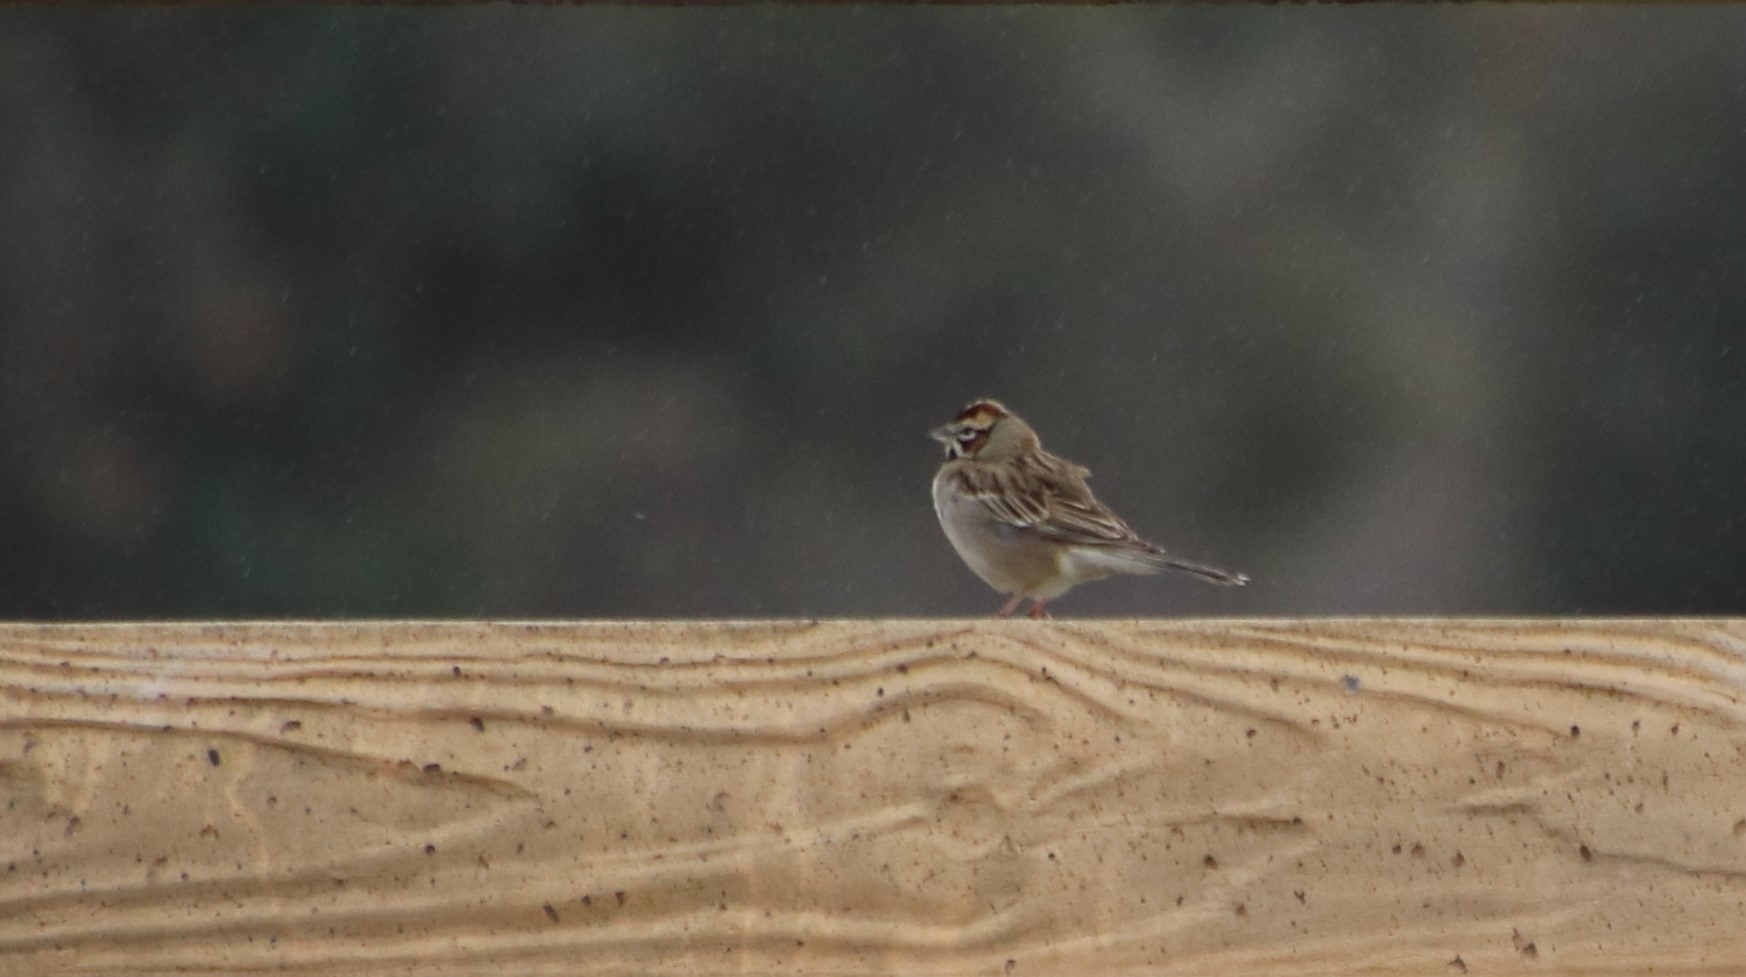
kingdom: Animalia
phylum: Chordata
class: Aves
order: Passeriformes
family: Passerellidae
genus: Chondestes
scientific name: Chondestes grammacus
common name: Lark sparrow
